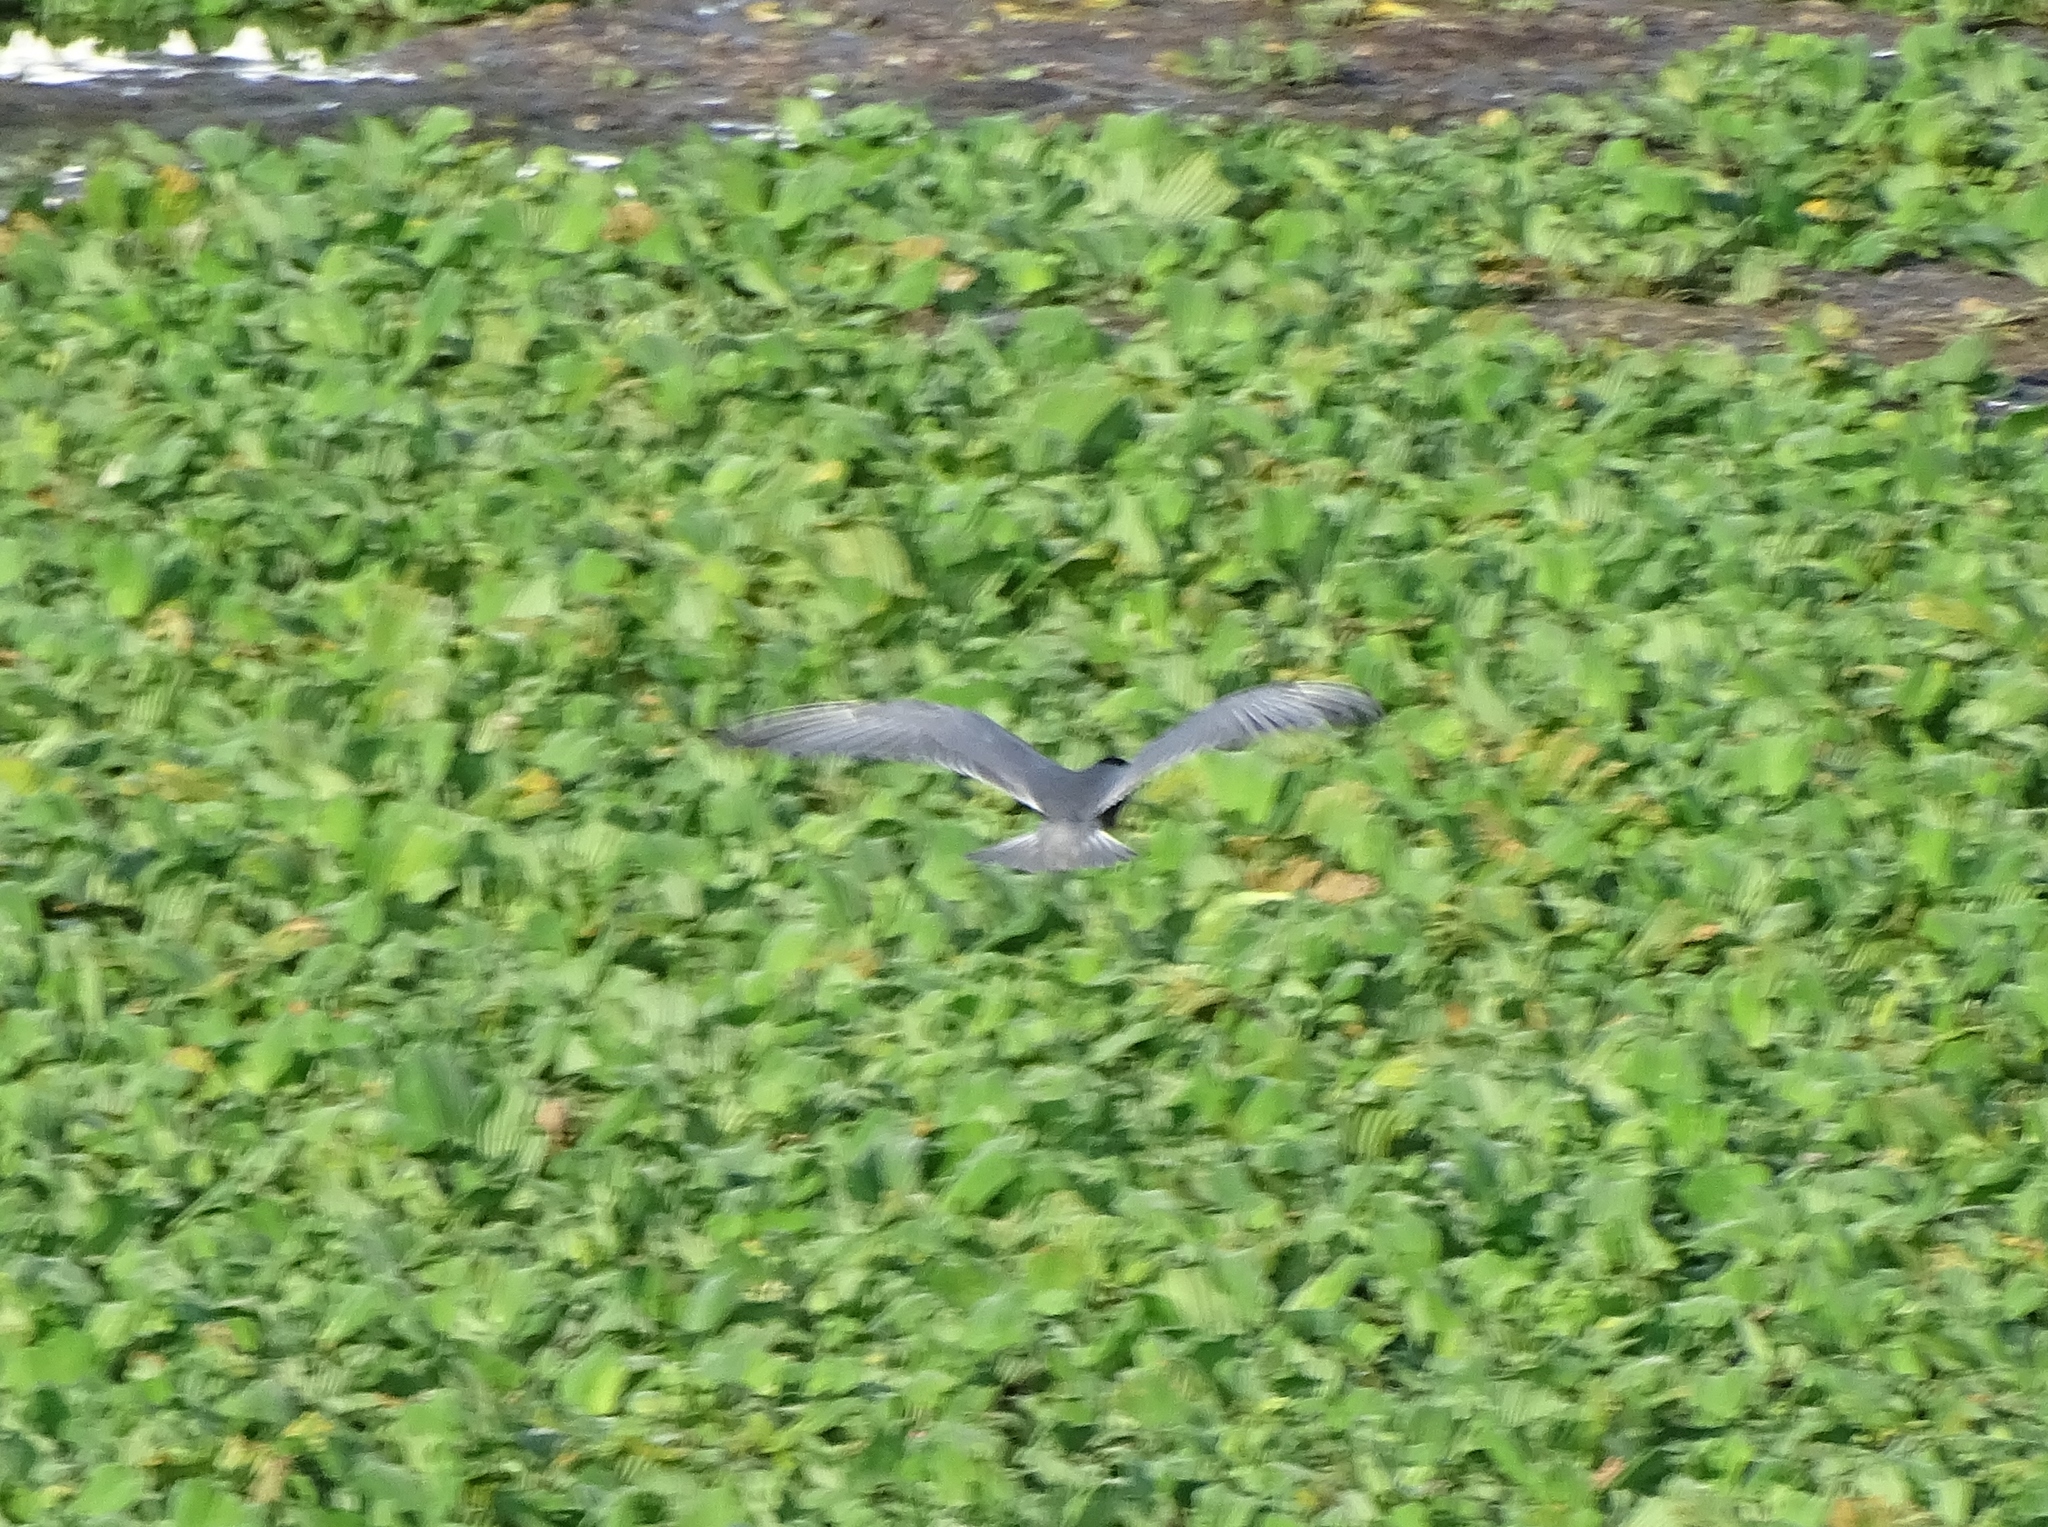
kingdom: Animalia
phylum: Chordata
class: Aves
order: Charadriiformes
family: Laridae
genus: Chlidonias
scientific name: Chlidonias hybrida
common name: Whiskered tern
